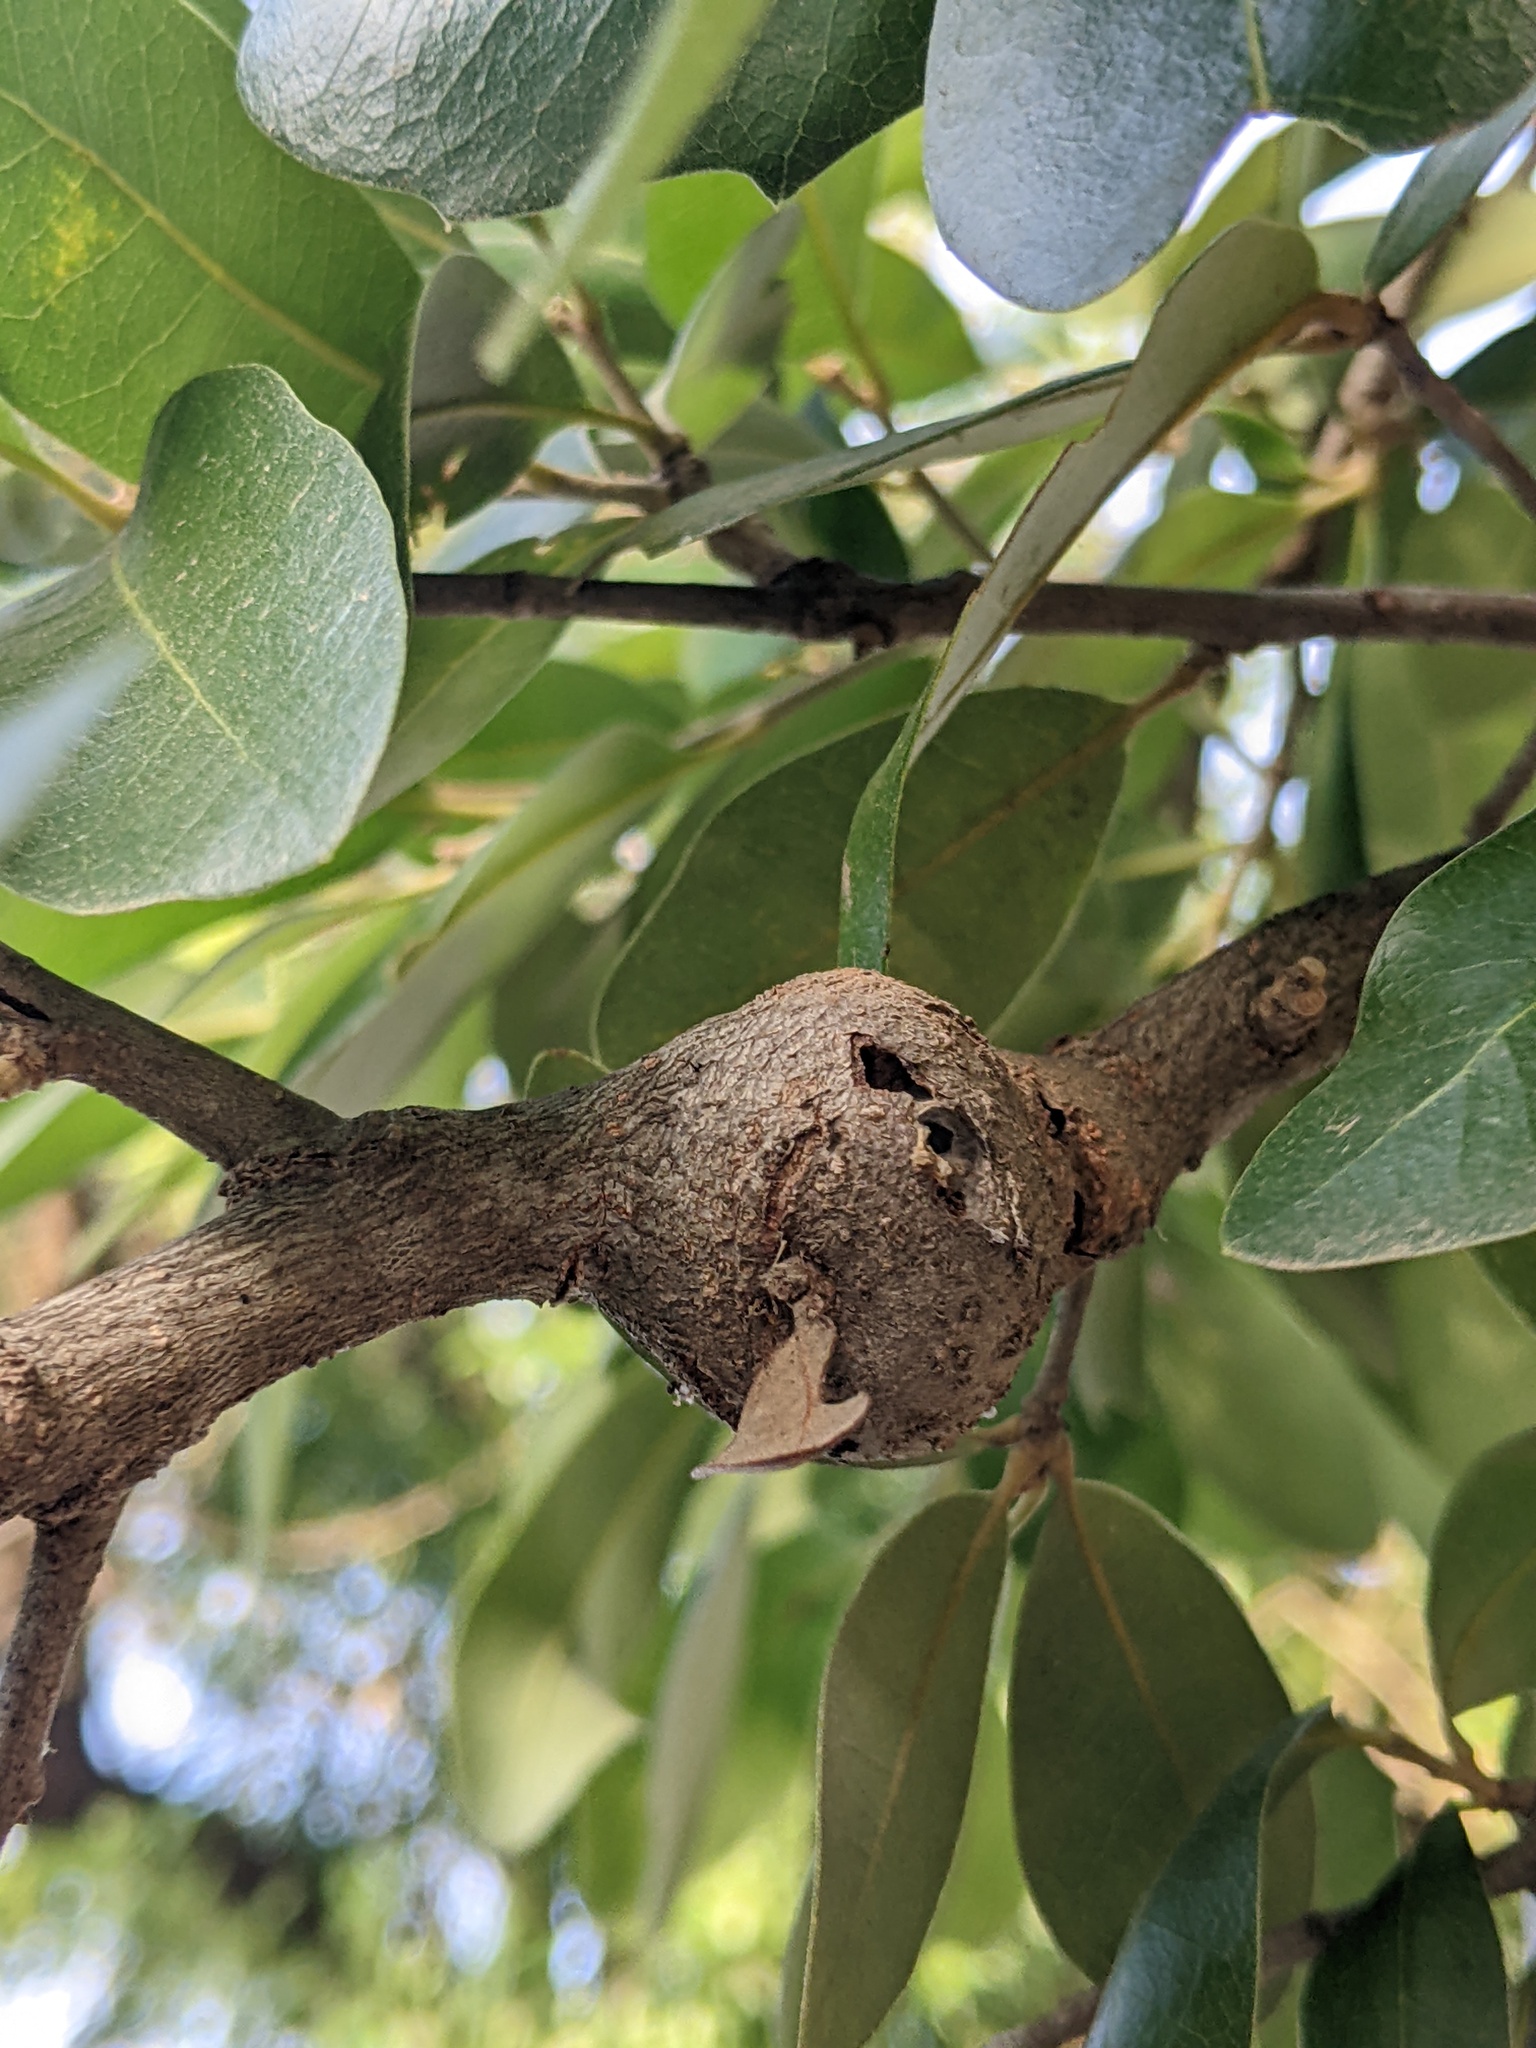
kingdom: Animalia
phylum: Arthropoda
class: Insecta
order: Hymenoptera
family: Cynipidae
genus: Callirhytis
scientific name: Callirhytis
